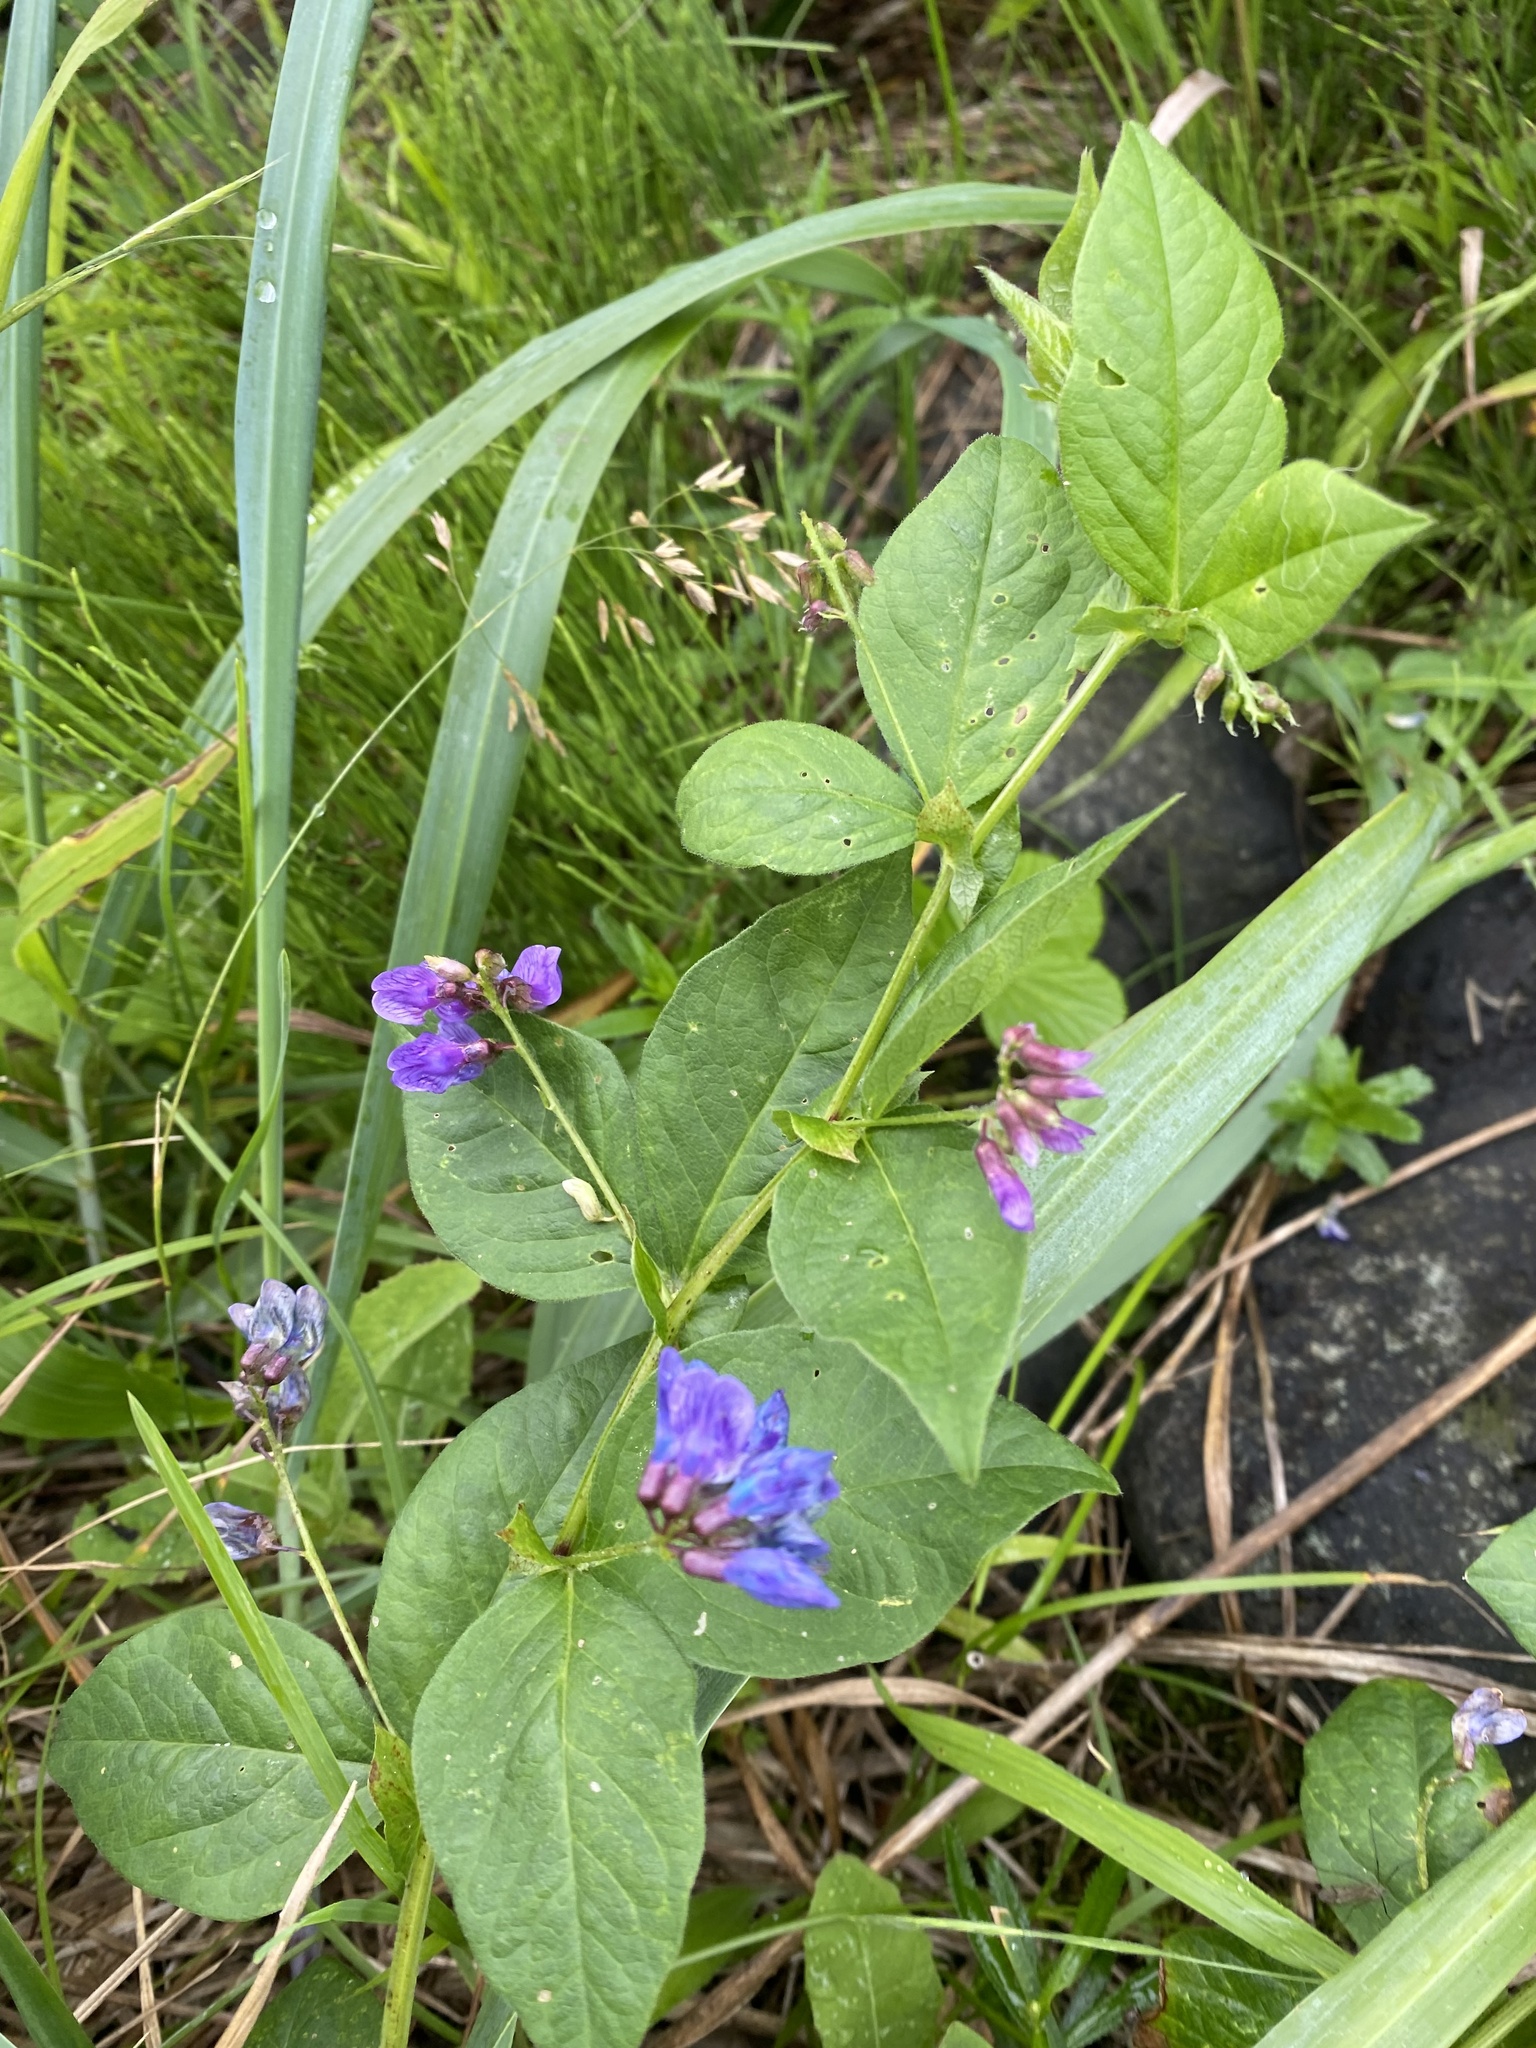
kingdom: Plantae
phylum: Tracheophyta
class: Magnoliopsida
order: Fabales
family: Fabaceae
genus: Vicia
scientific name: Vicia unijuga
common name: Two-leaf vetch
